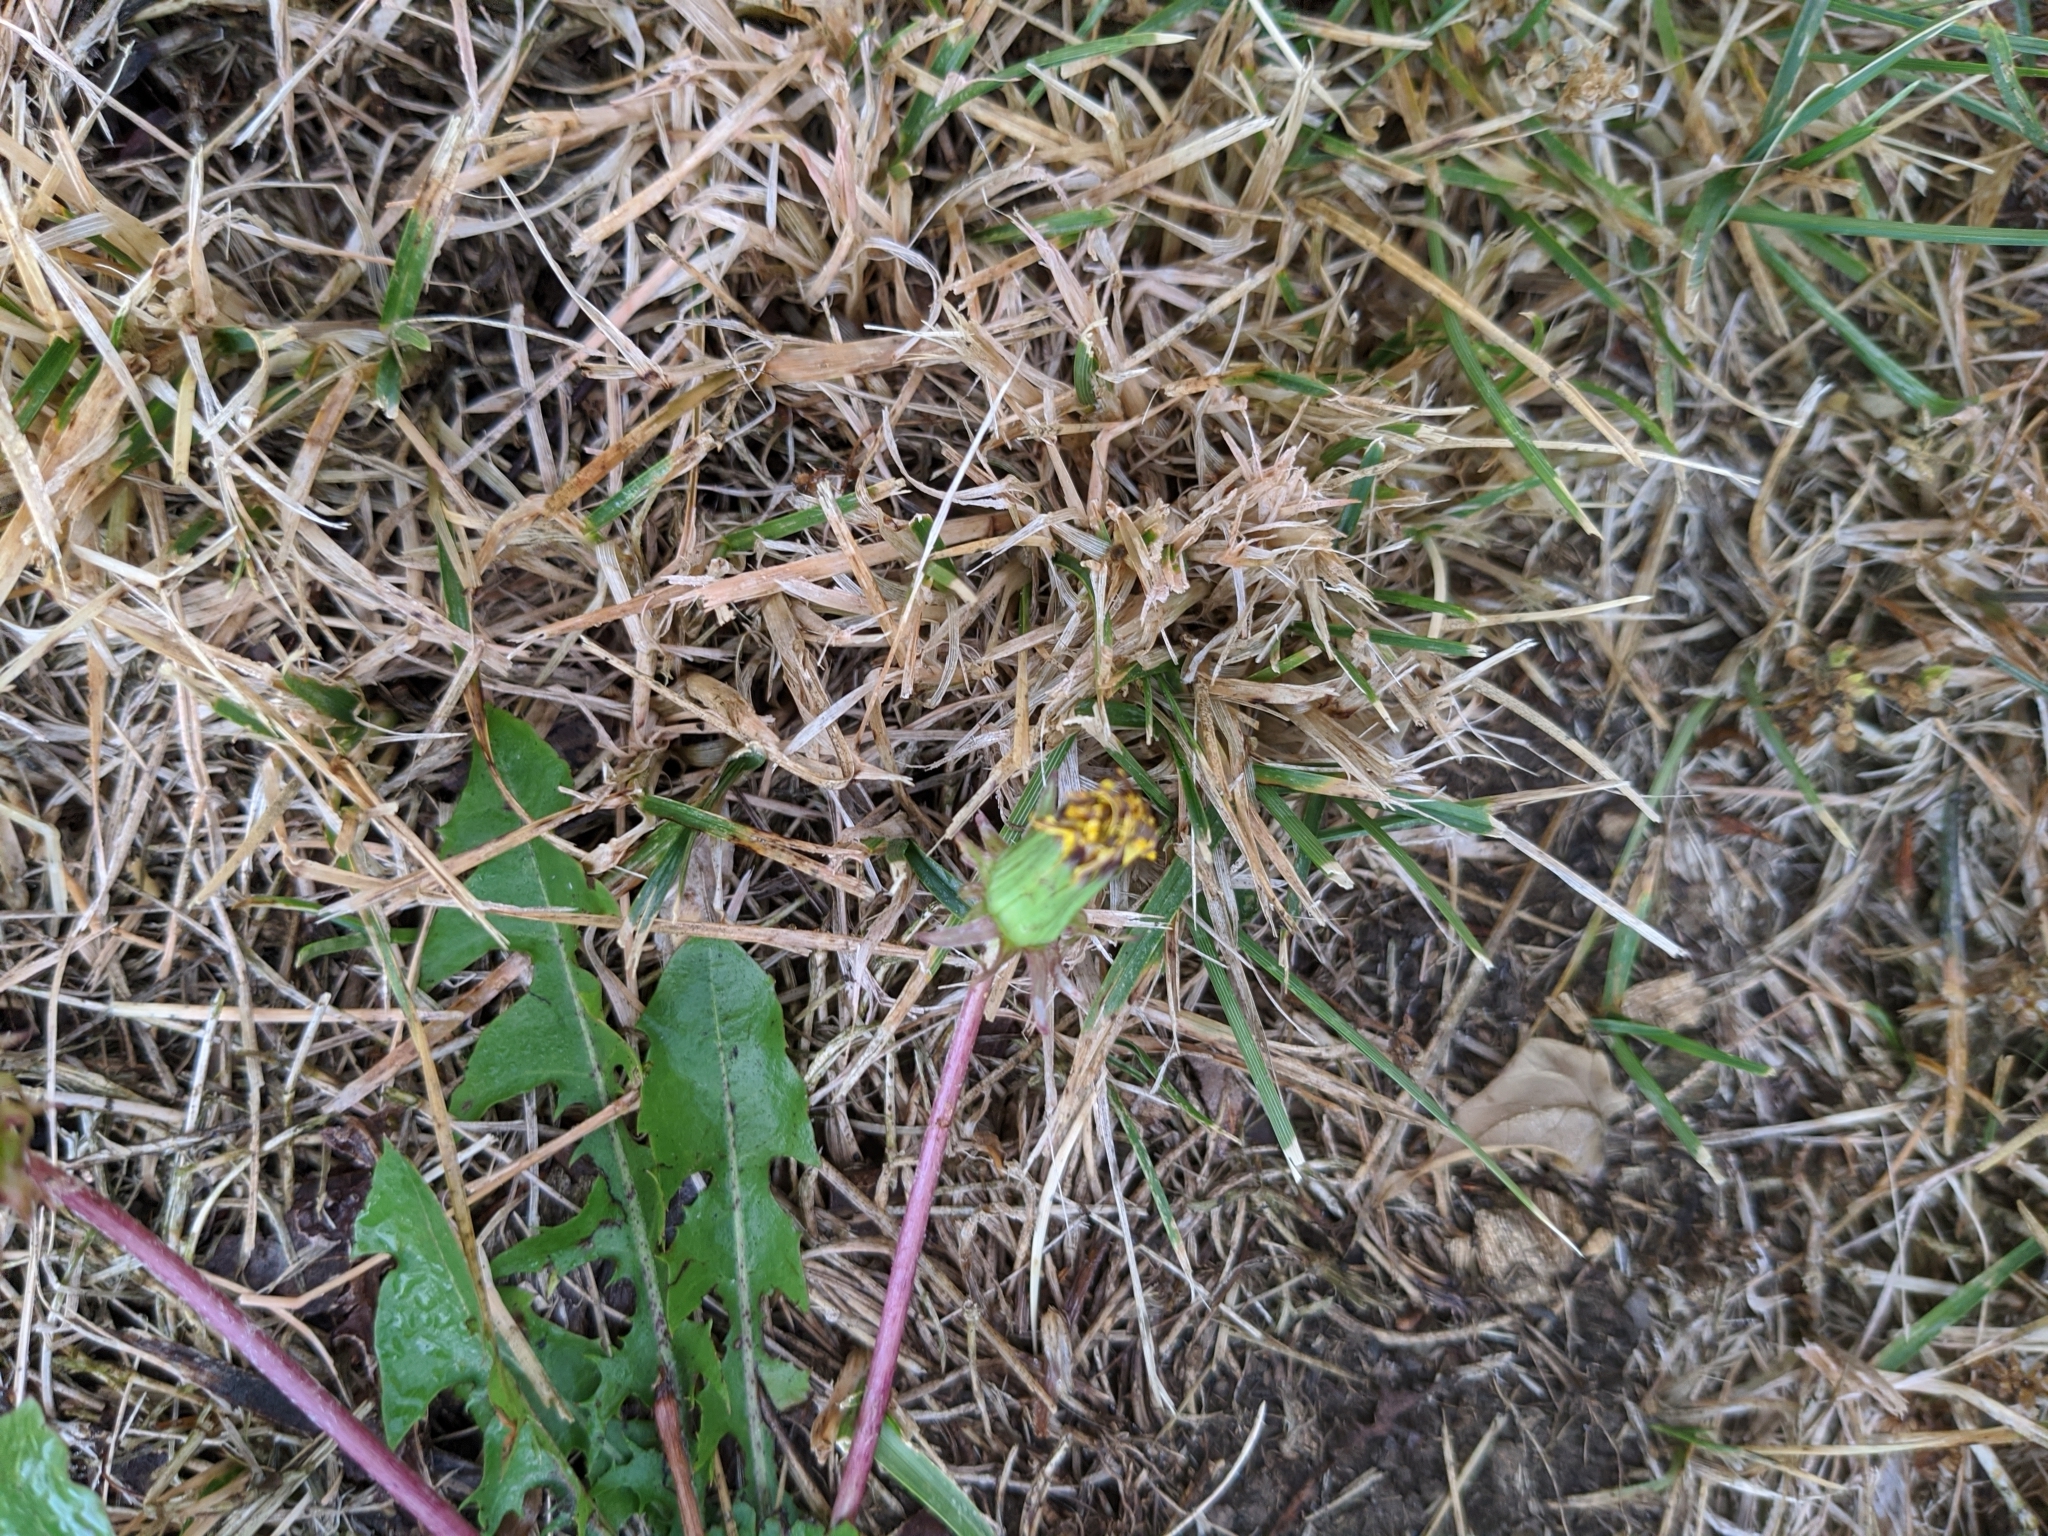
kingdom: Plantae
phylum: Tracheophyta
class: Magnoliopsida
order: Asterales
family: Asteraceae
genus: Taraxacum
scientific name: Taraxacum officinale
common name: Common dandelion
